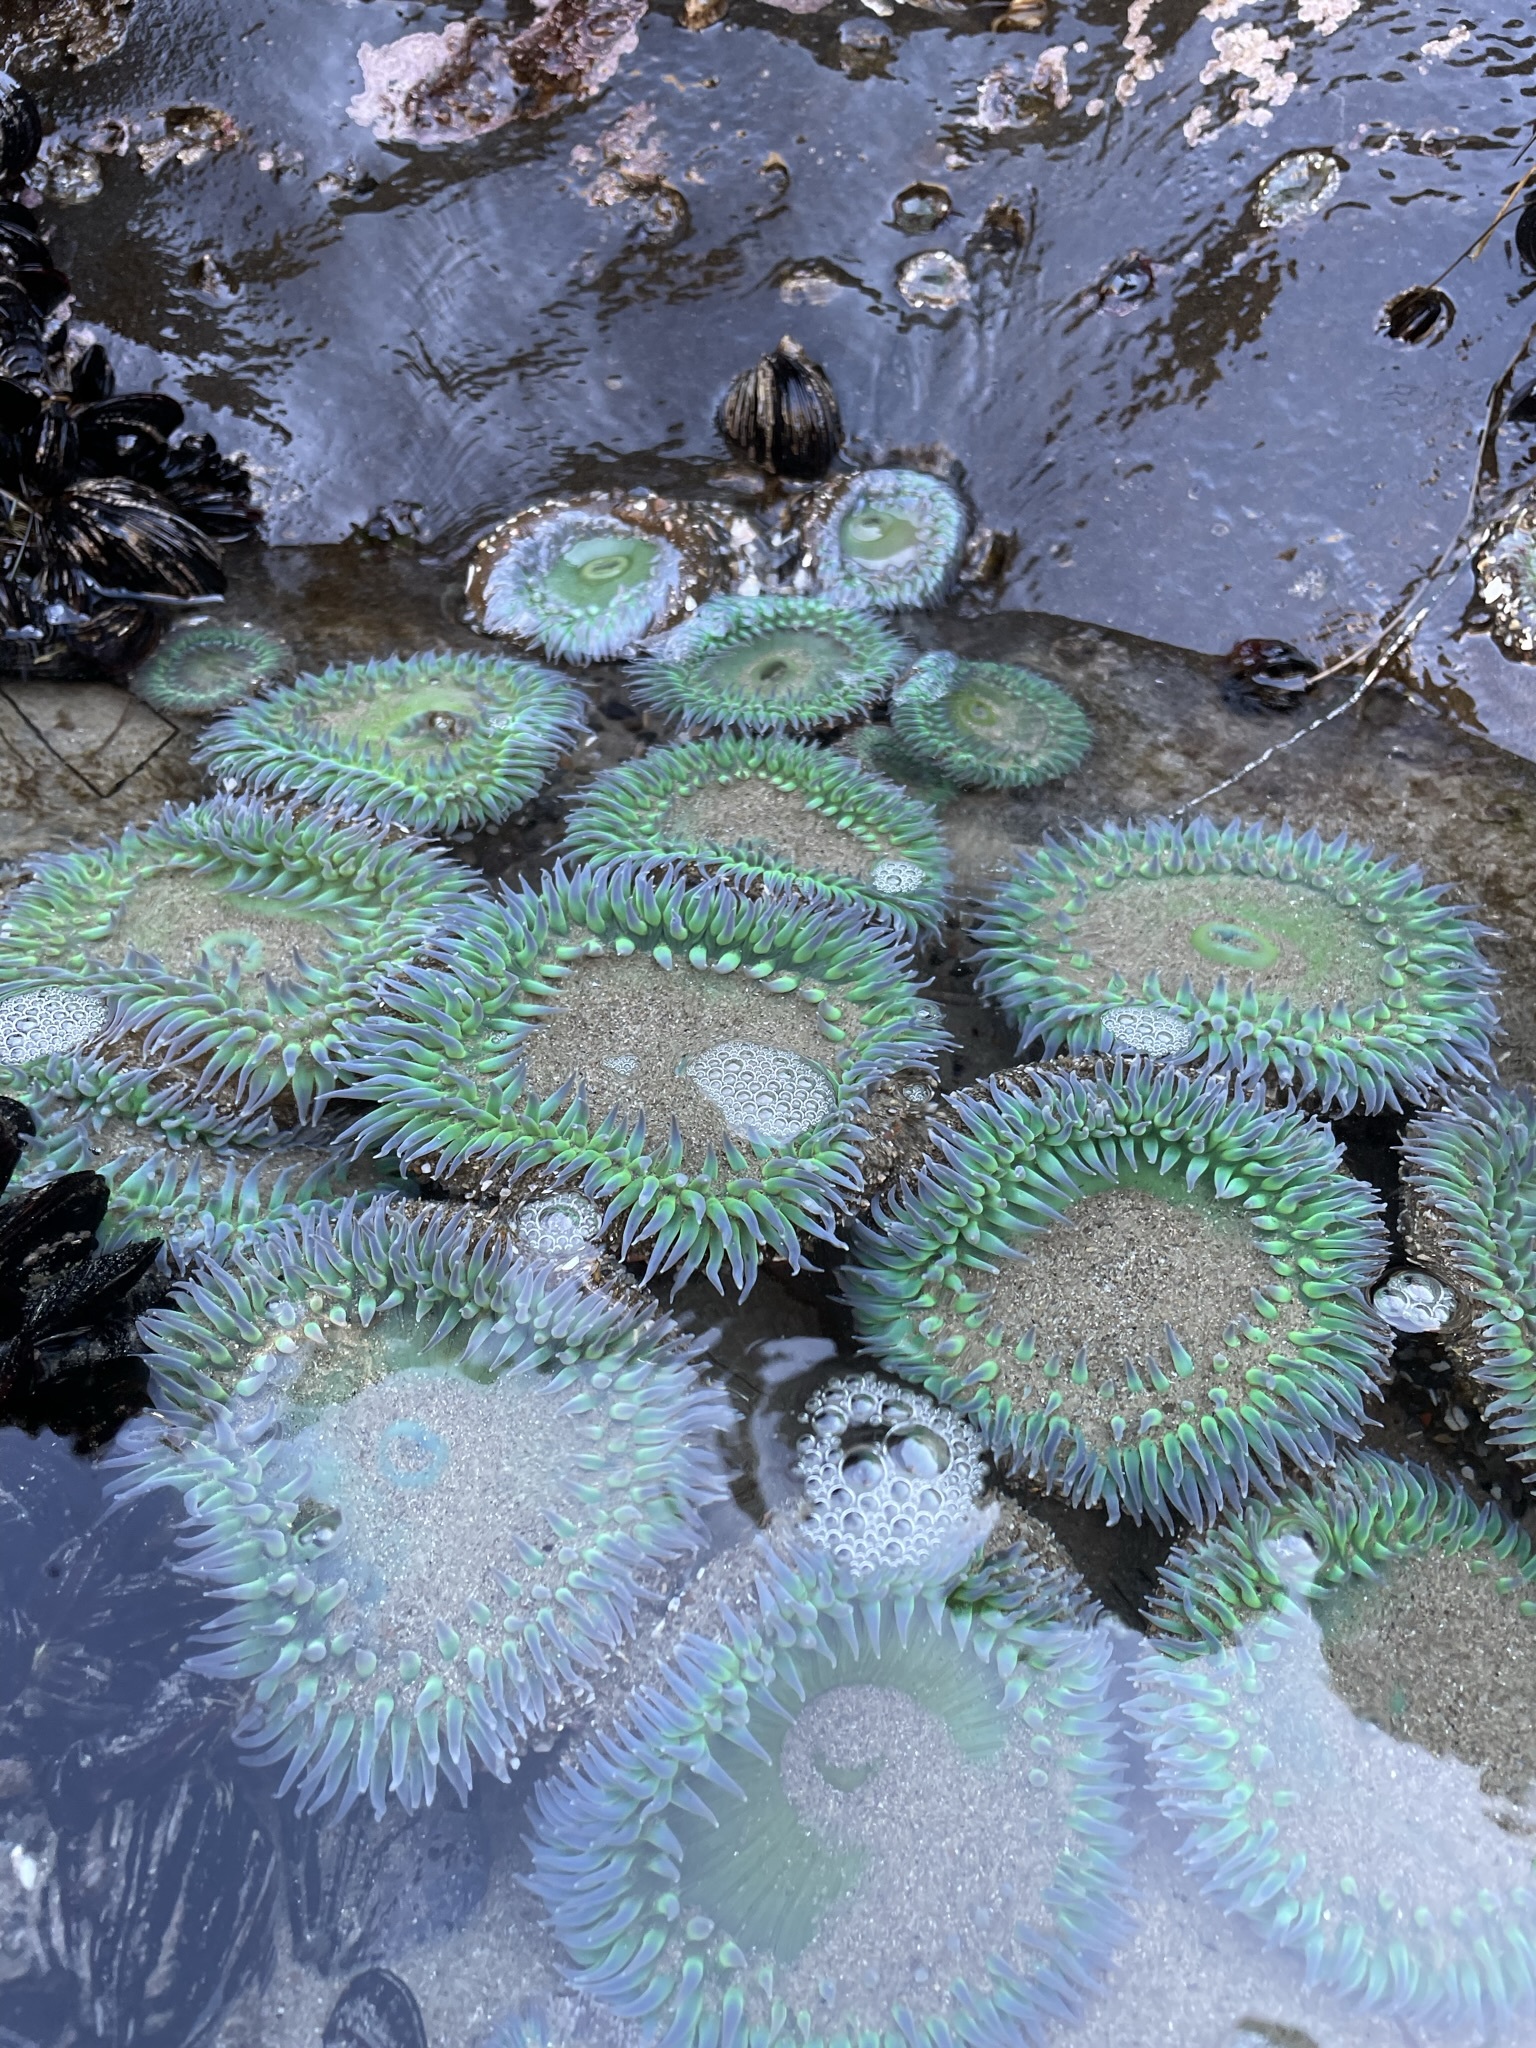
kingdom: Animalia
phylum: Cnidaria
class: Anthozoa
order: Actiniaria
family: Actiniidae
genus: Anthopleura
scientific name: Anthopleura xanthogrammica
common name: Giant green anemone
